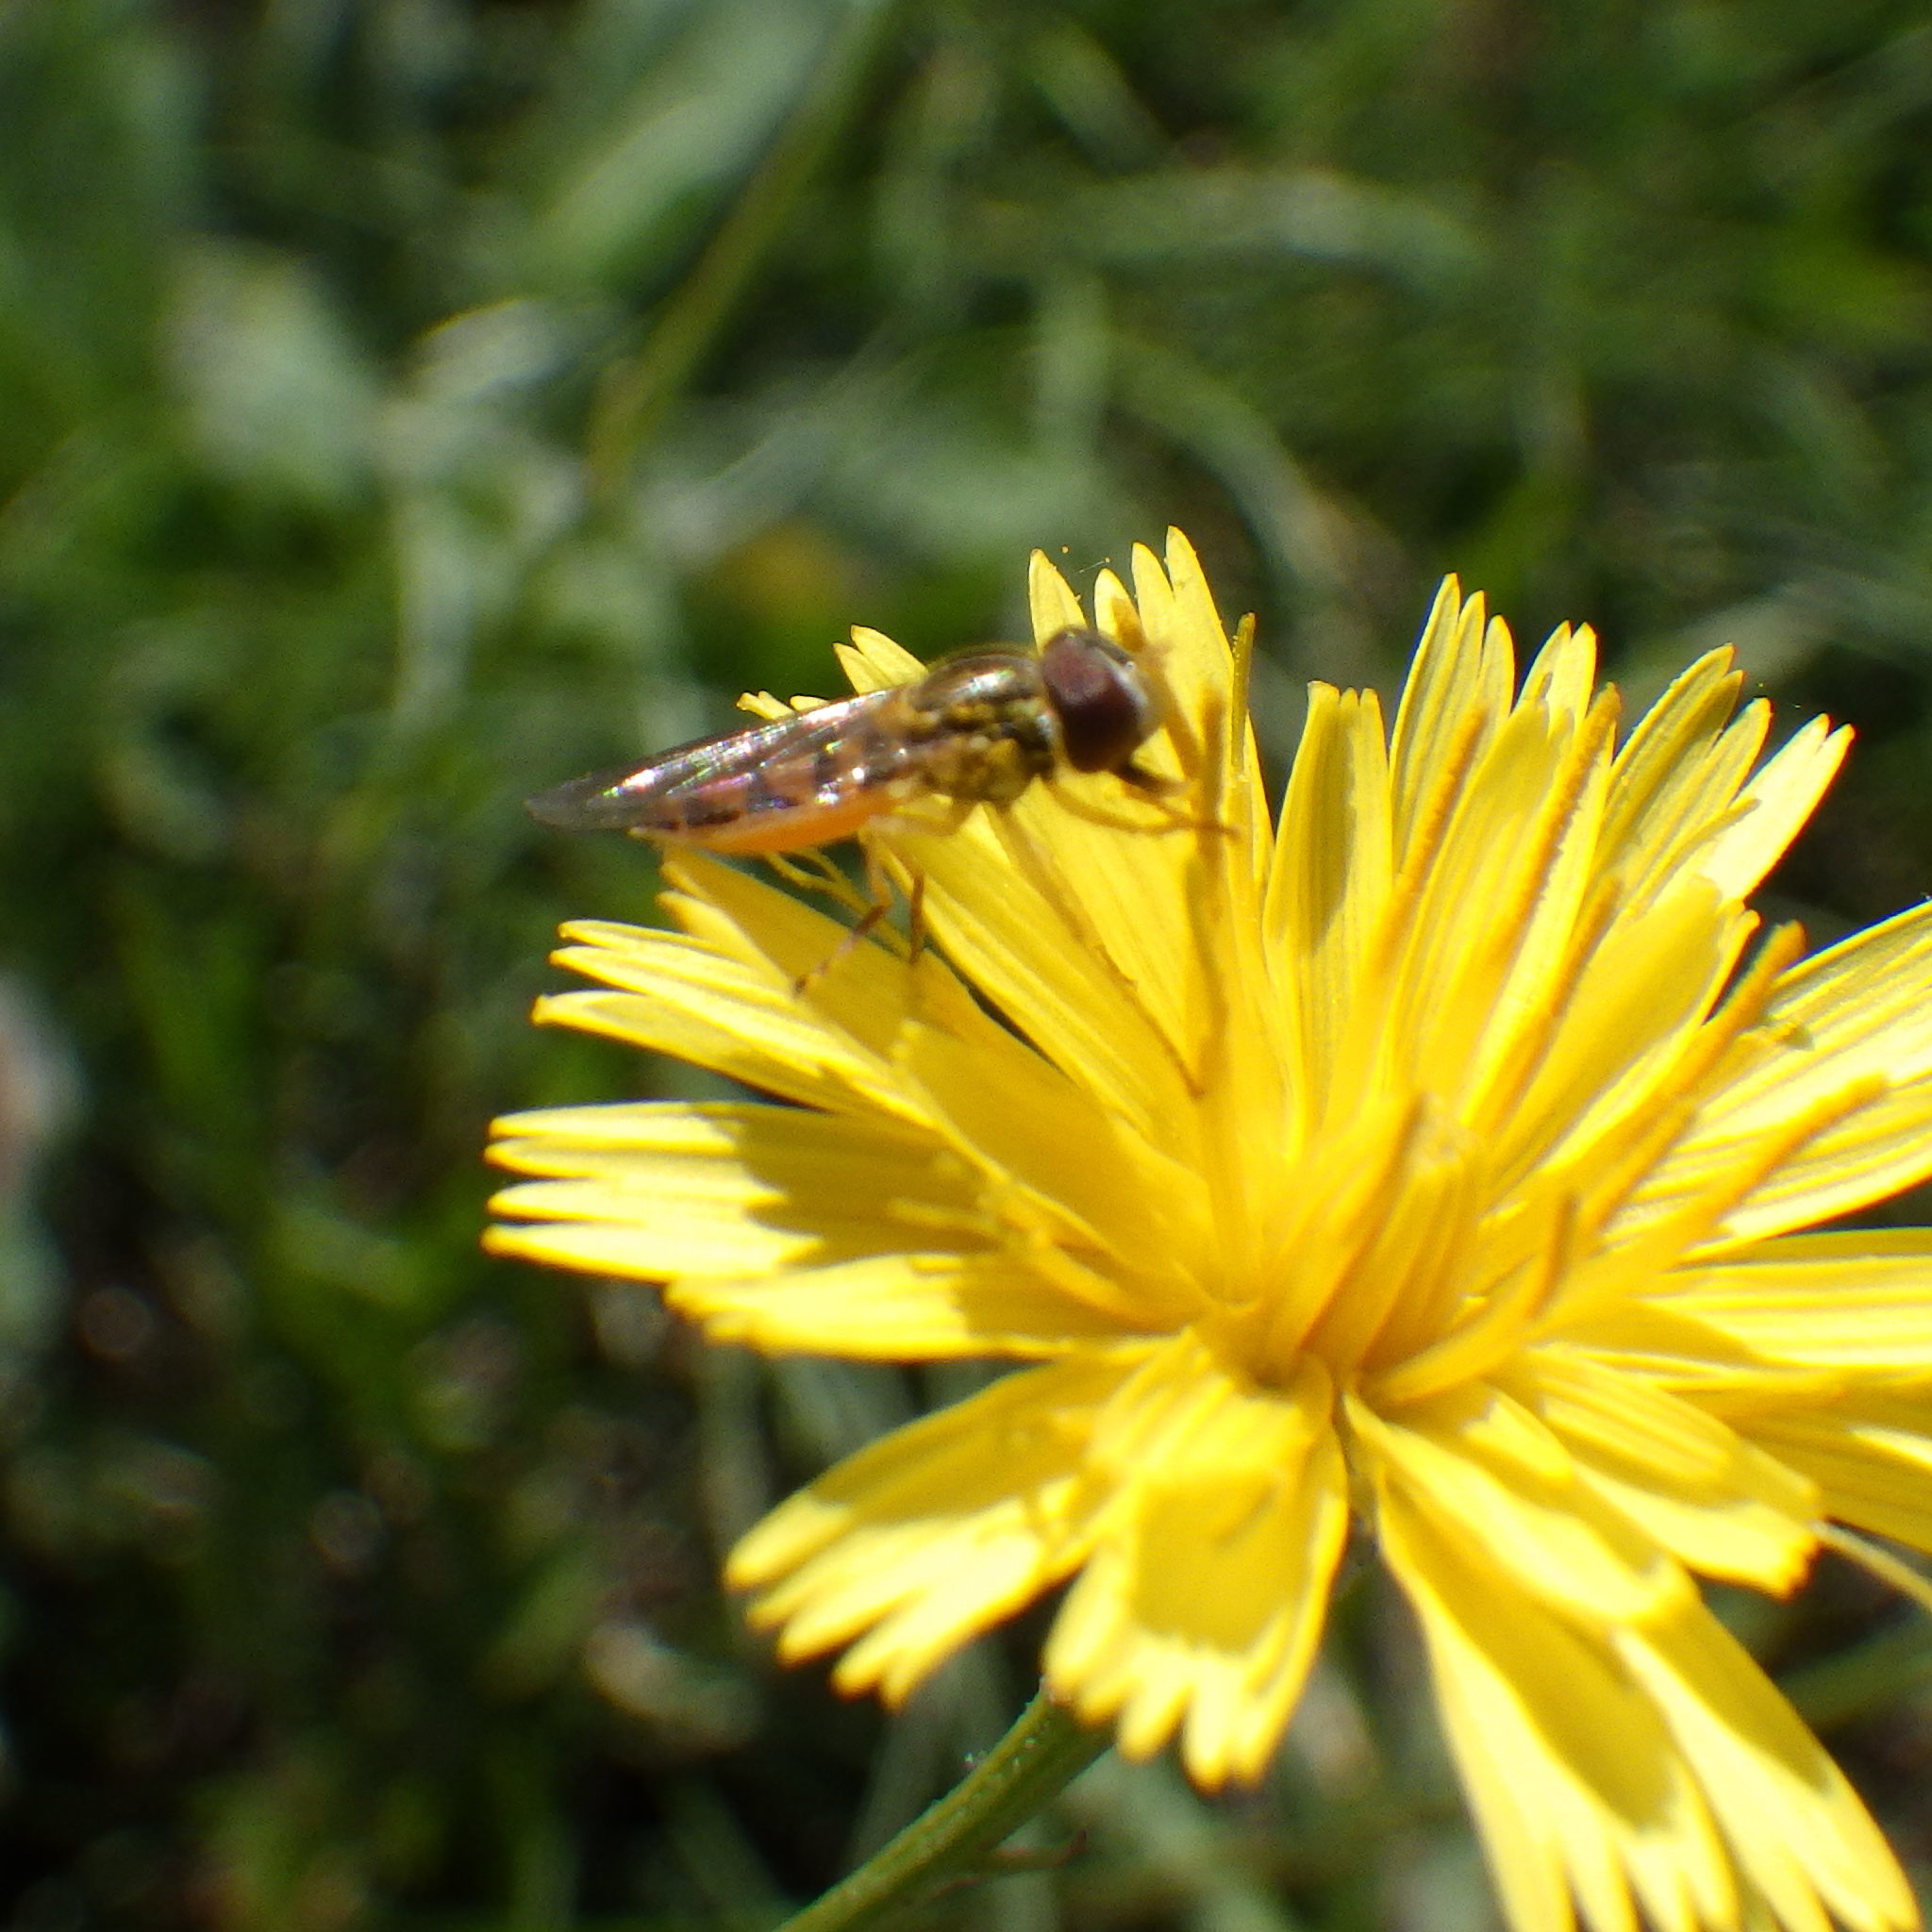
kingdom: Animalia
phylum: Arthropoda
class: Insecta
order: Diptera
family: Syrphidae
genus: Toxomerus
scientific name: Toxomerus marginatus
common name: Syrphid fly
